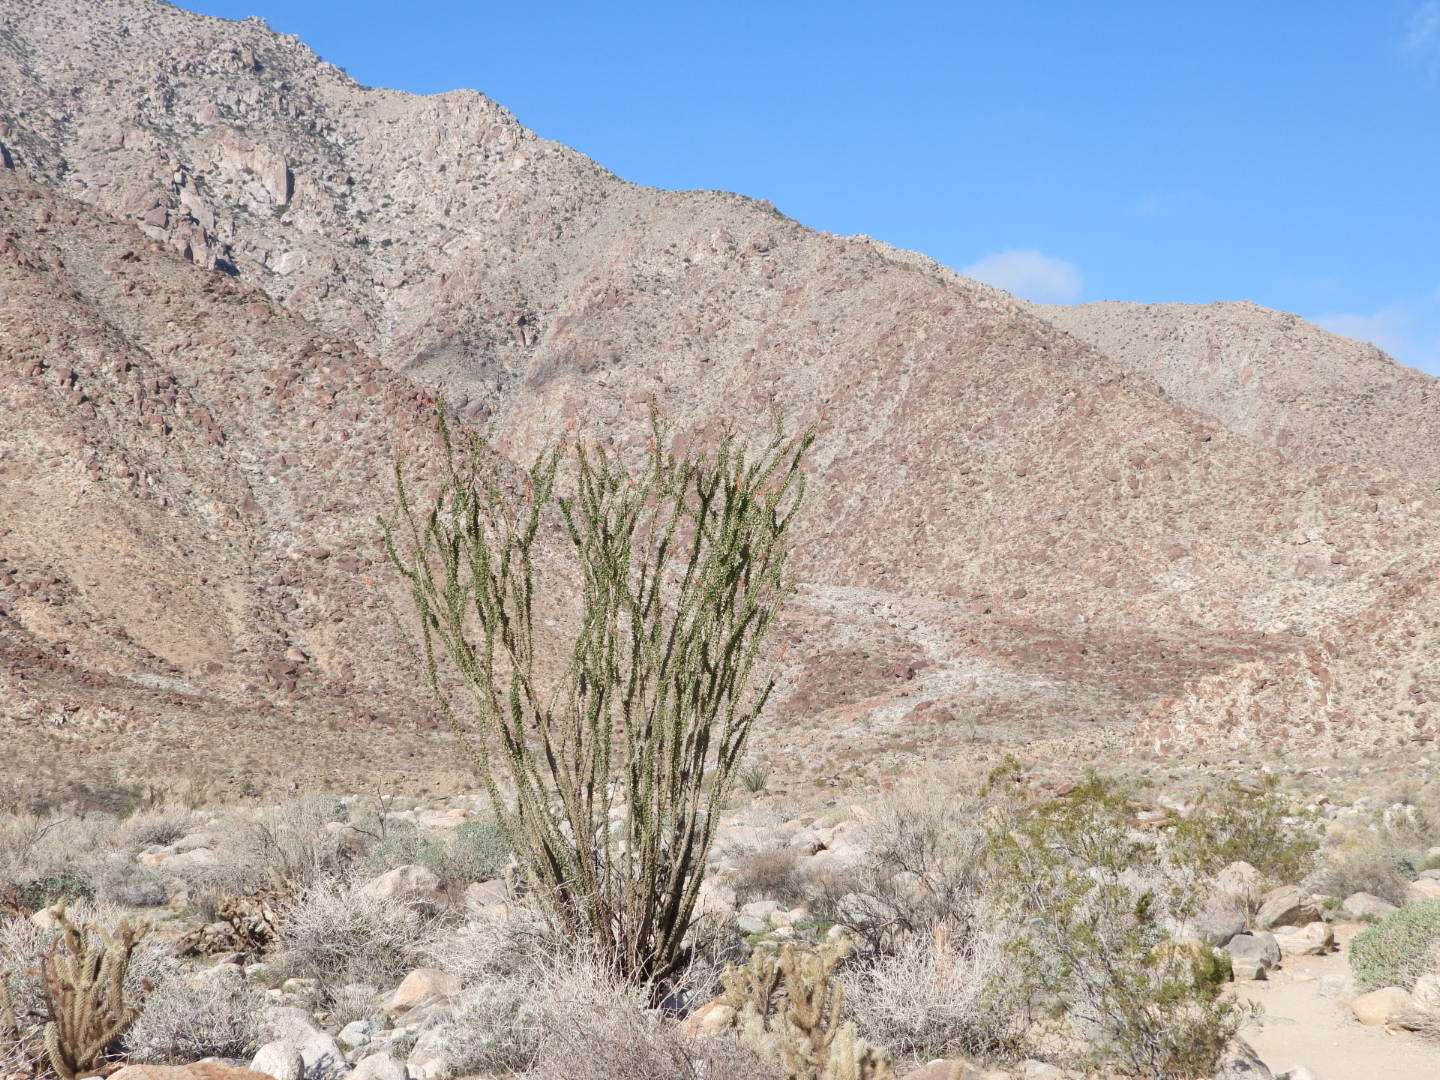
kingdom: Plantae
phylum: Tracheophyta
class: Magnoliopsida
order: Ericales
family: Fouquieriaceae
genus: Fouquieria
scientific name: Fouquieria splendens
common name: Vine-cactus
